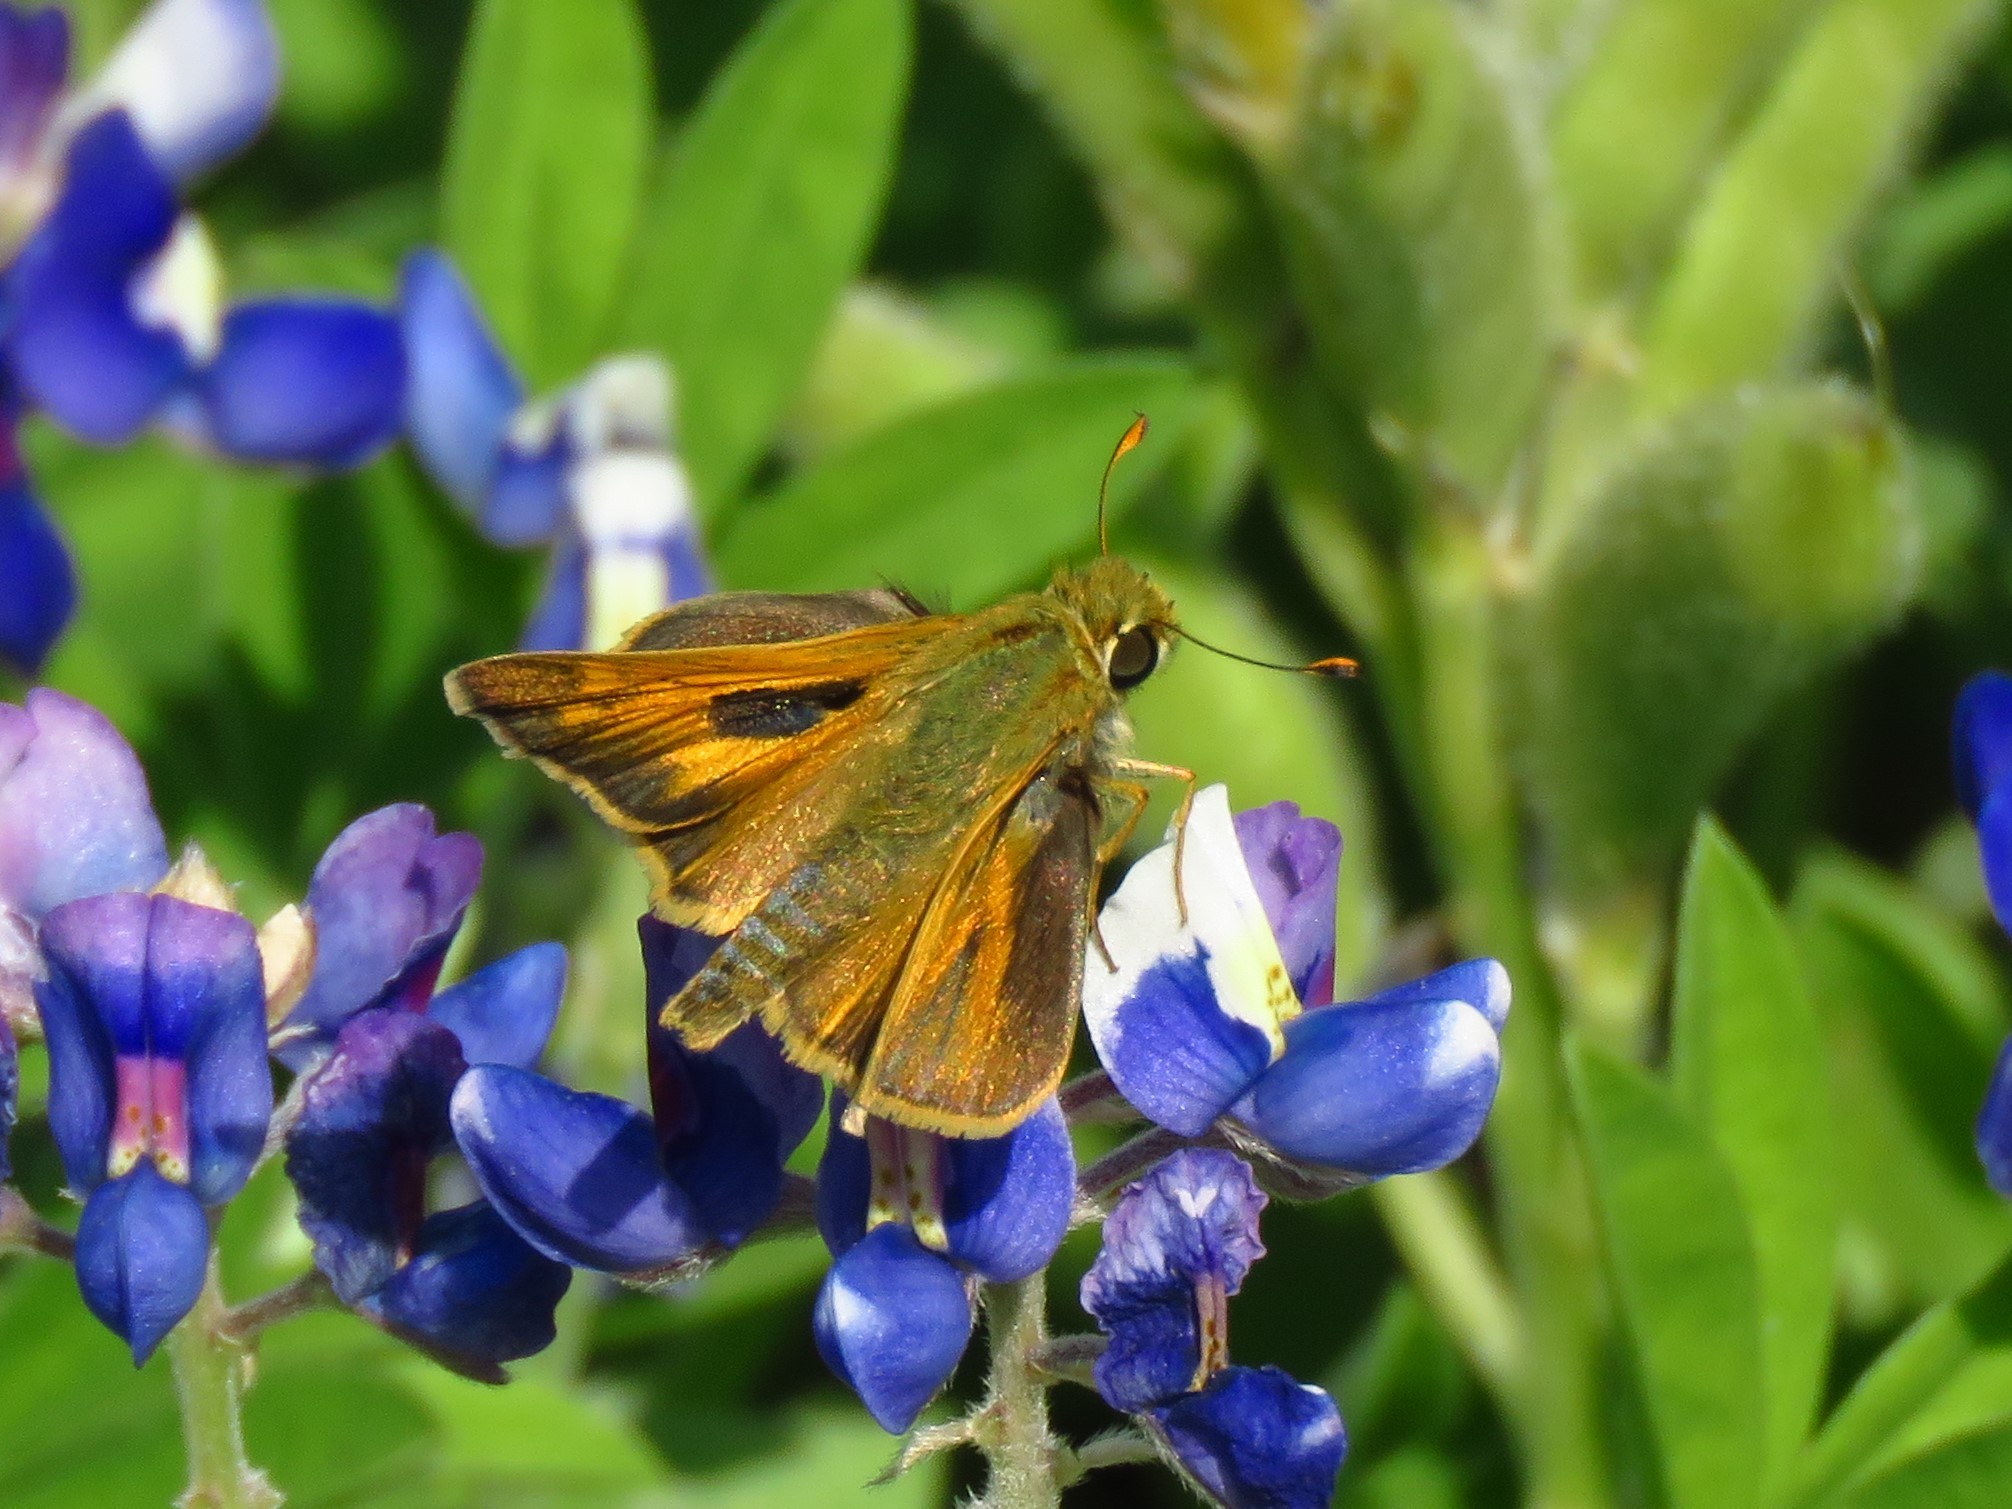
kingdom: Animalia
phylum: Arthropoda
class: Insecta
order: Lepidoptera
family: Hesperiidae
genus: Hylephila
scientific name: Hylephila phyleus
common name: Fiery skipper
